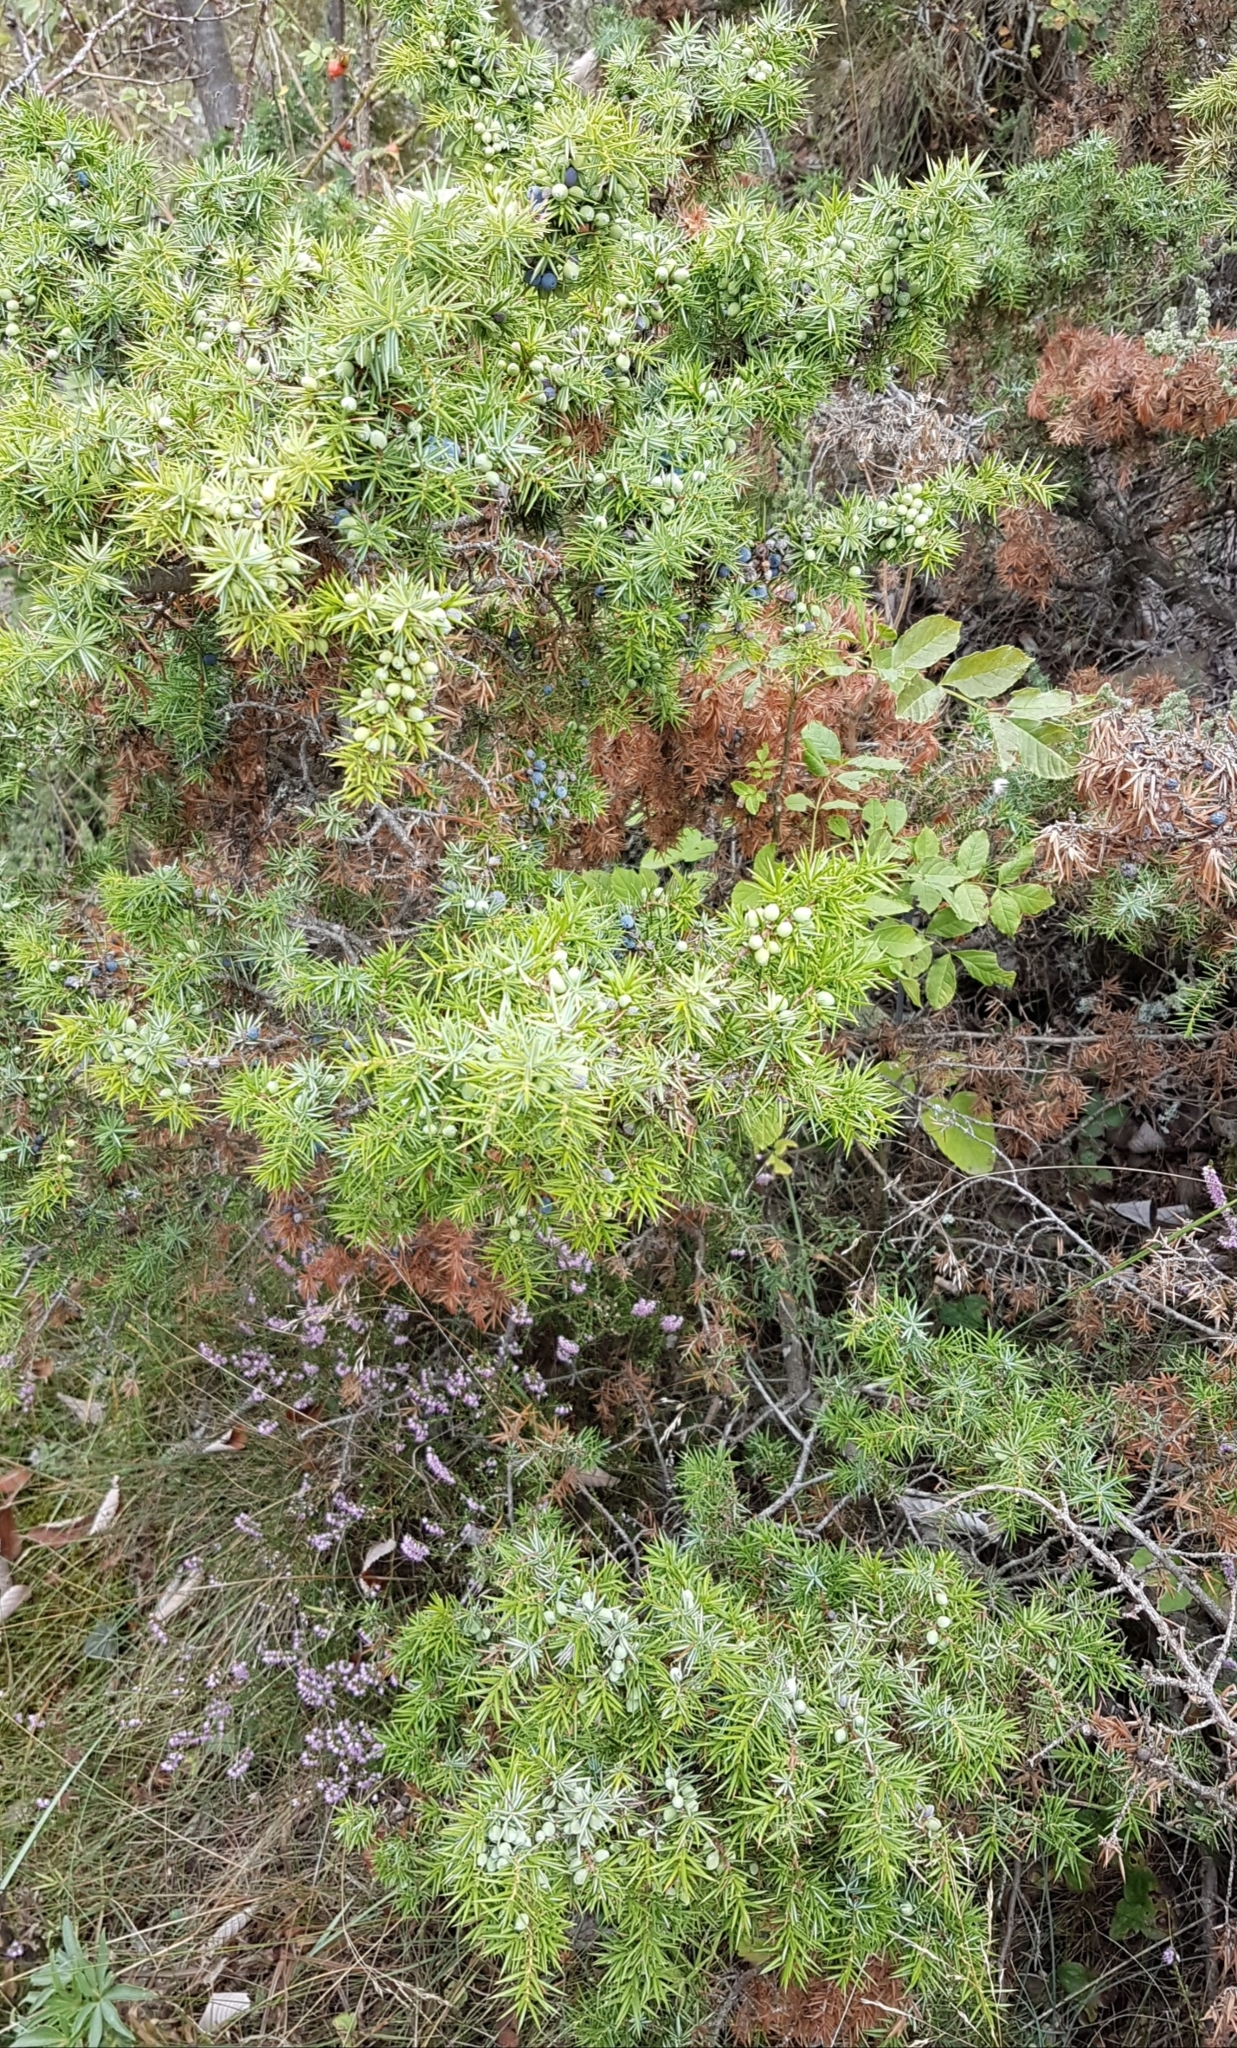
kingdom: Plantae
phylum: Tracheophyta
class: Pinopsida
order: Pinales
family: Cupressaceae
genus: Juniperus
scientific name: Juniperus communis
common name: Common juniper
